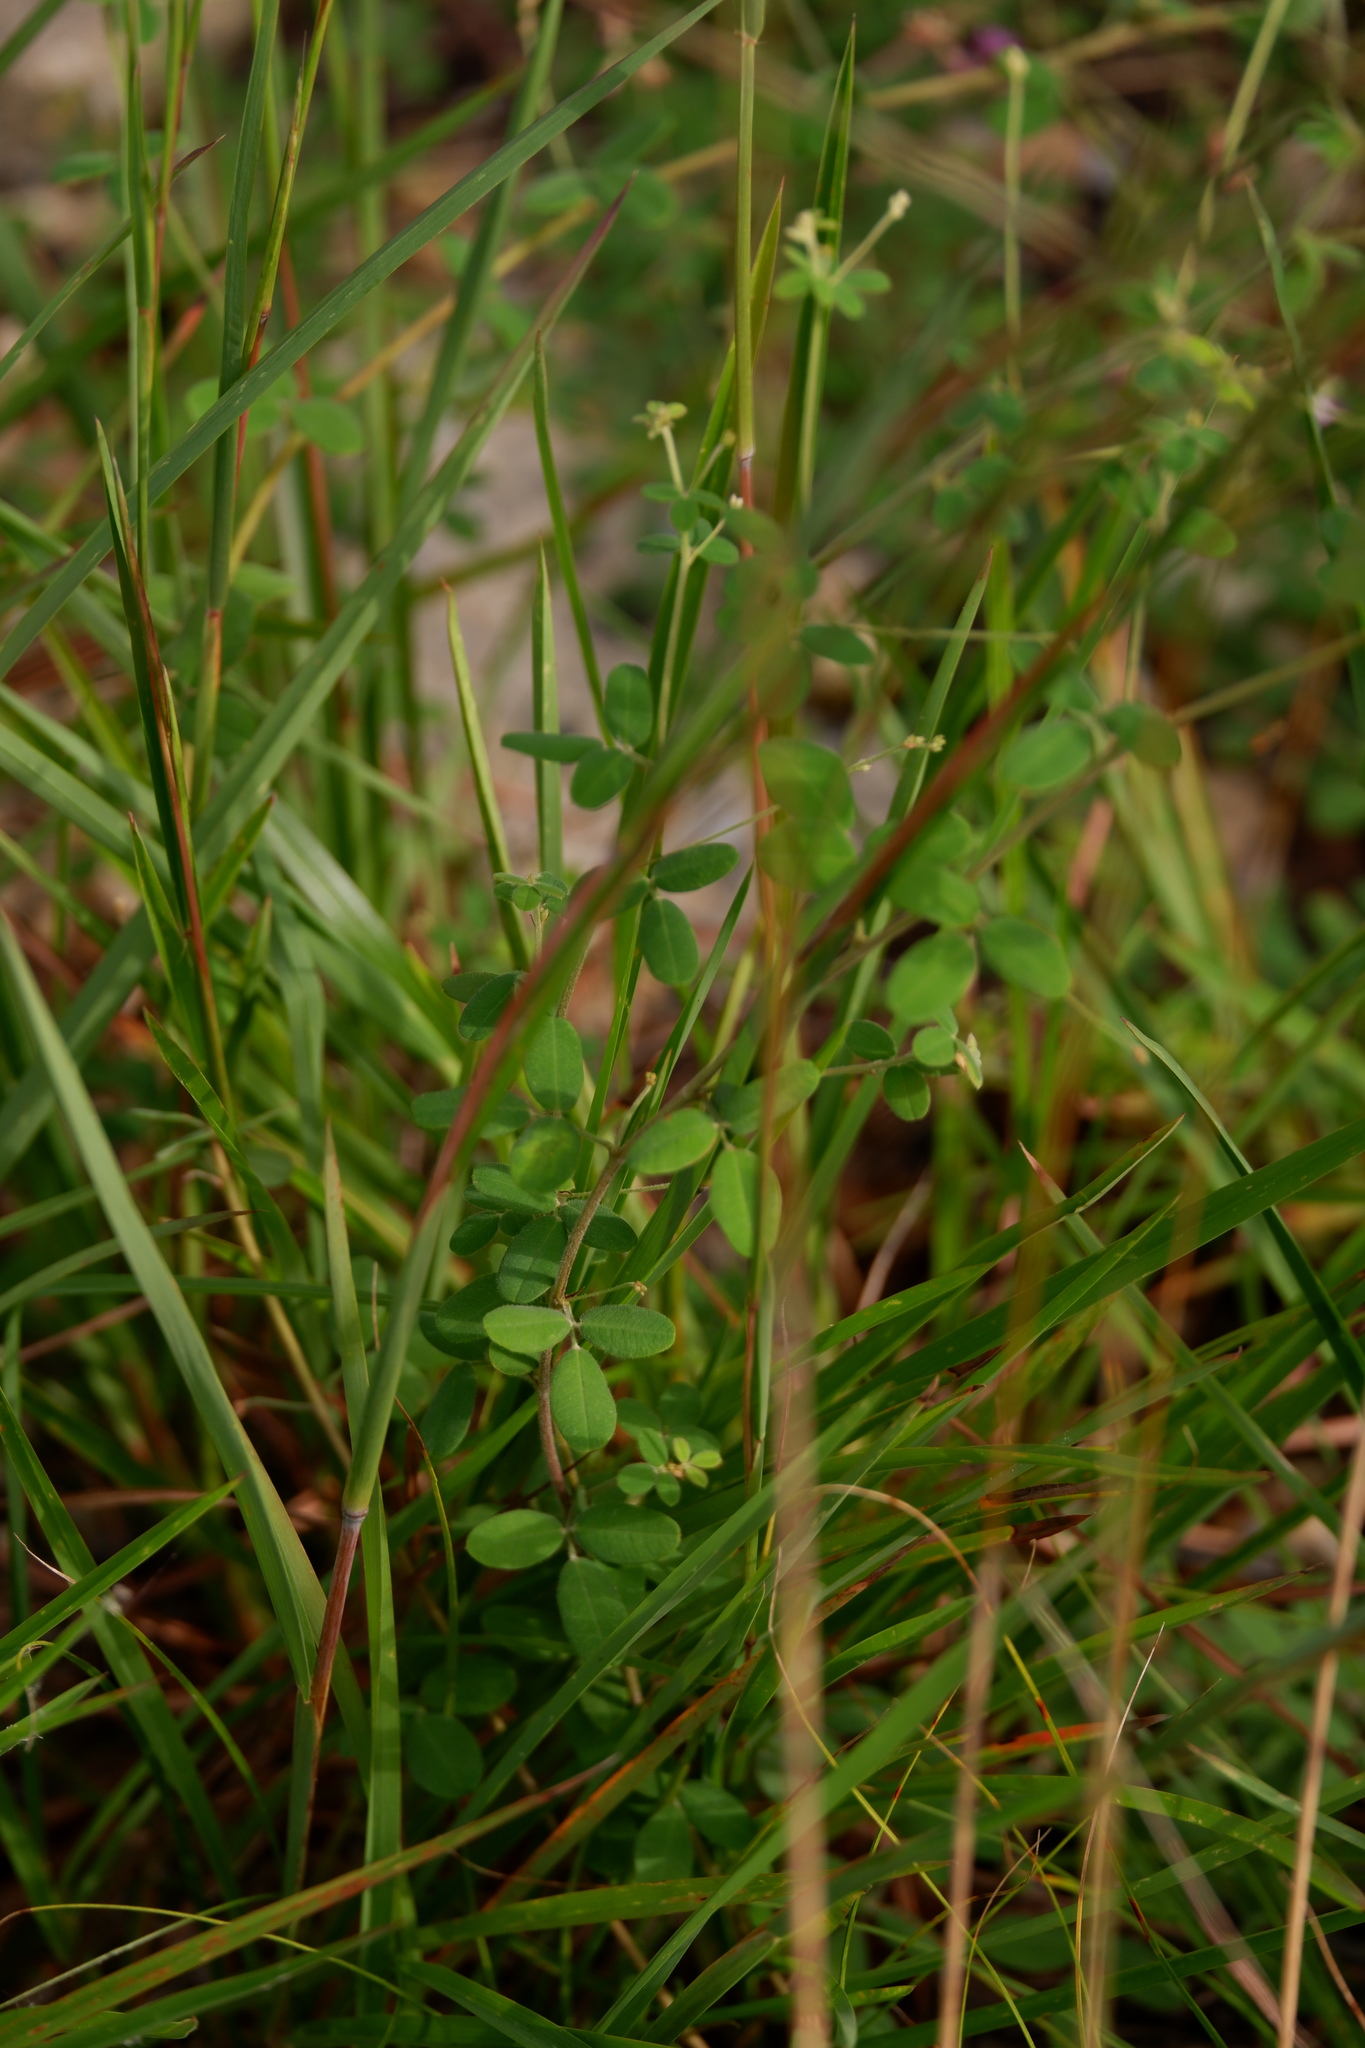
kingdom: Plantae
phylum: Tracheophyta
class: Magnoliopsida
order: Fabales
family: Fabaceae
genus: Lespedeza
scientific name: Lespedeza procumbens
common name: Downy trailing bush-clover
